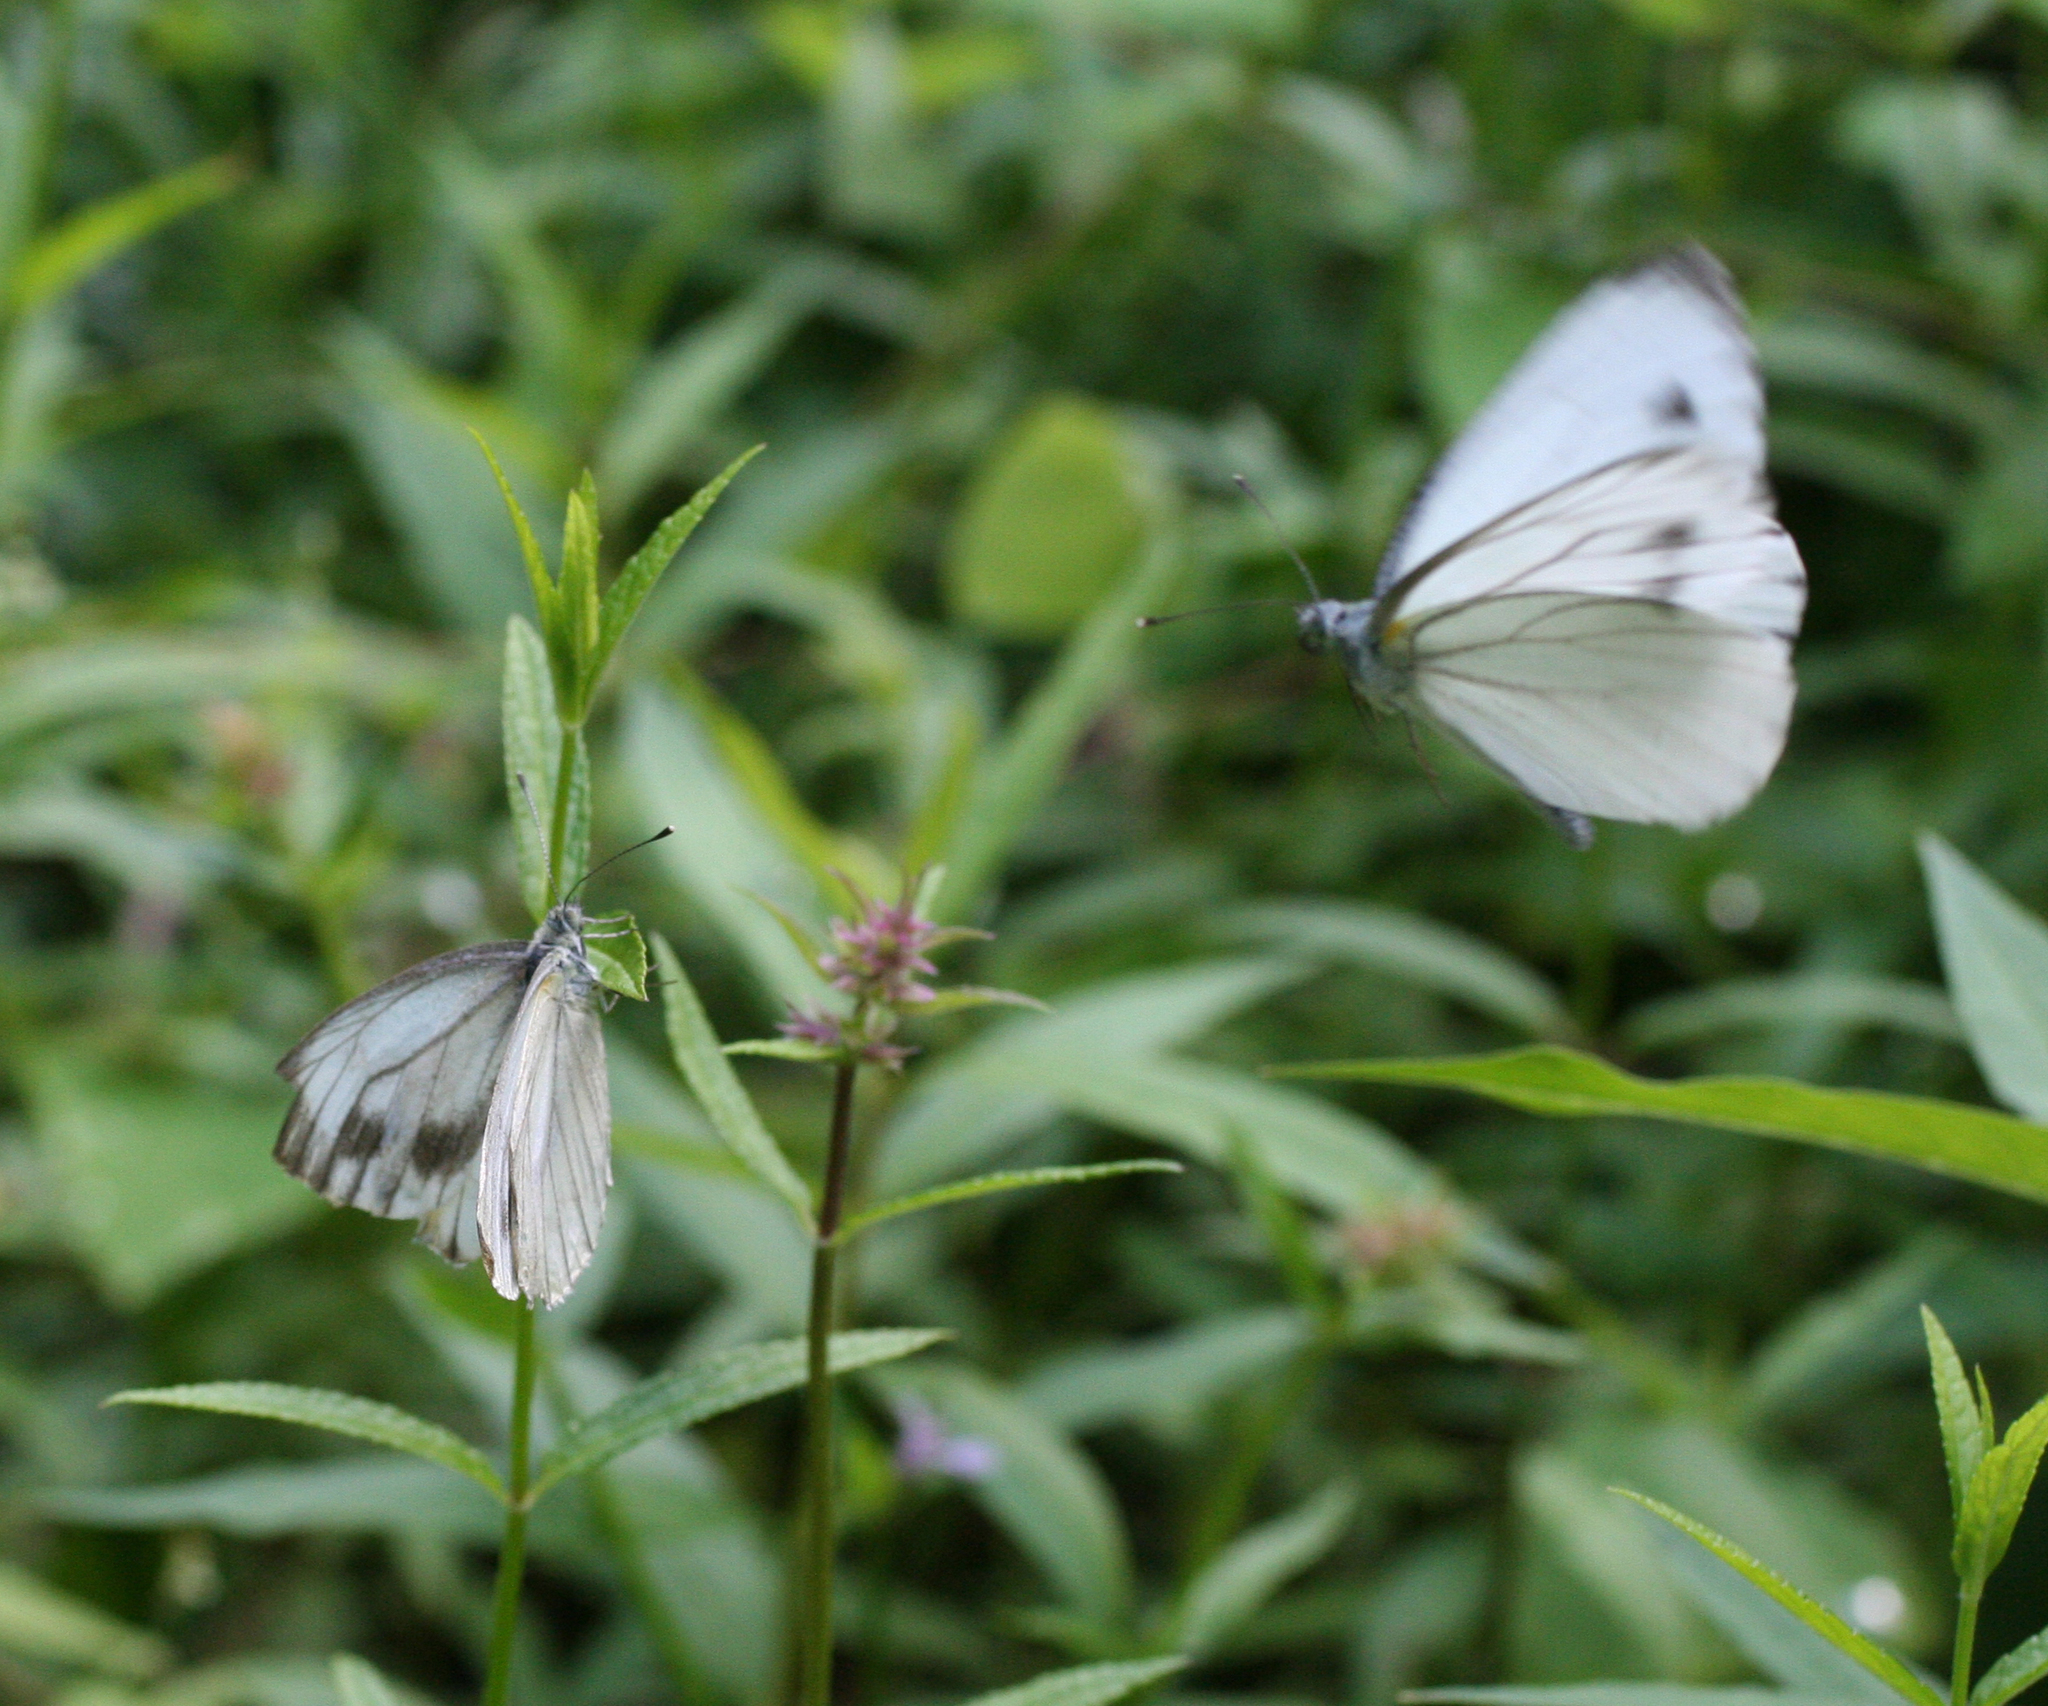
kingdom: Animalia
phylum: Arthropoda
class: Insecta
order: Lepidoptera
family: Pieridae
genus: Pieris
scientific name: Pieris dulcinea
